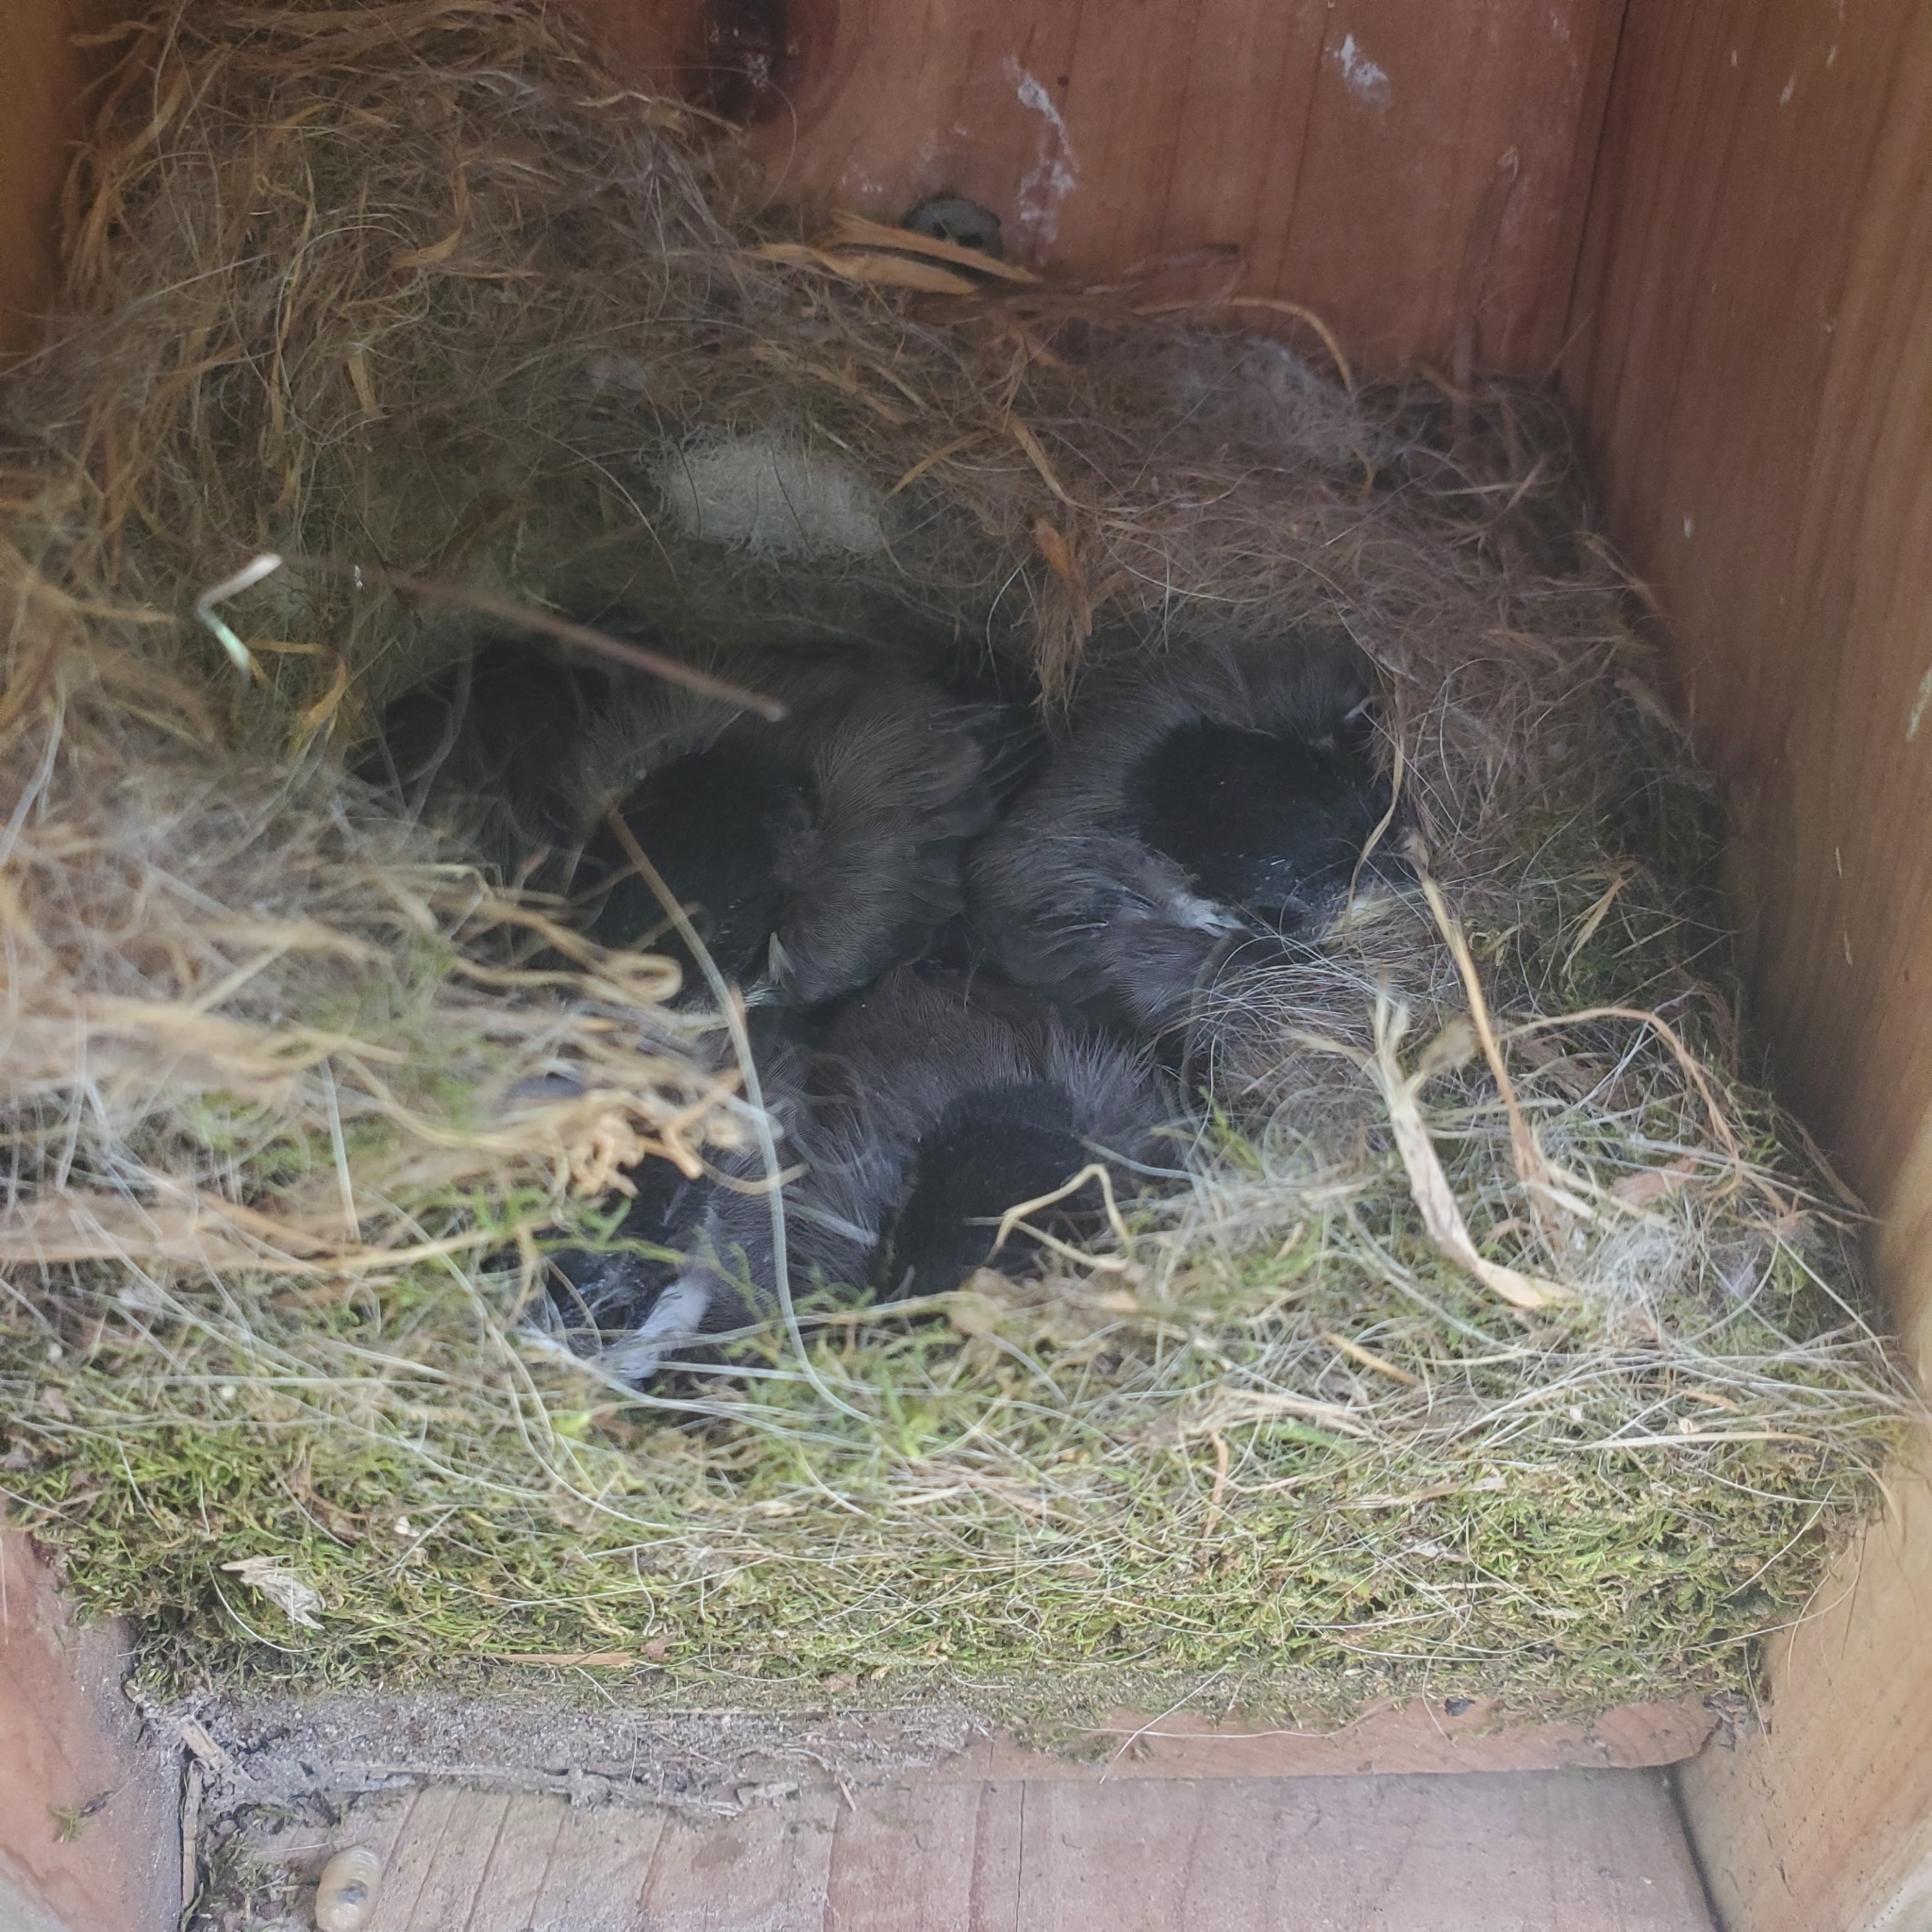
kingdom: Animalia
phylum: Chordata
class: Aves
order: Passeriformes
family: Paridae
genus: Poecile
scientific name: Poecile carolinensis
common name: Carolina chickadee
